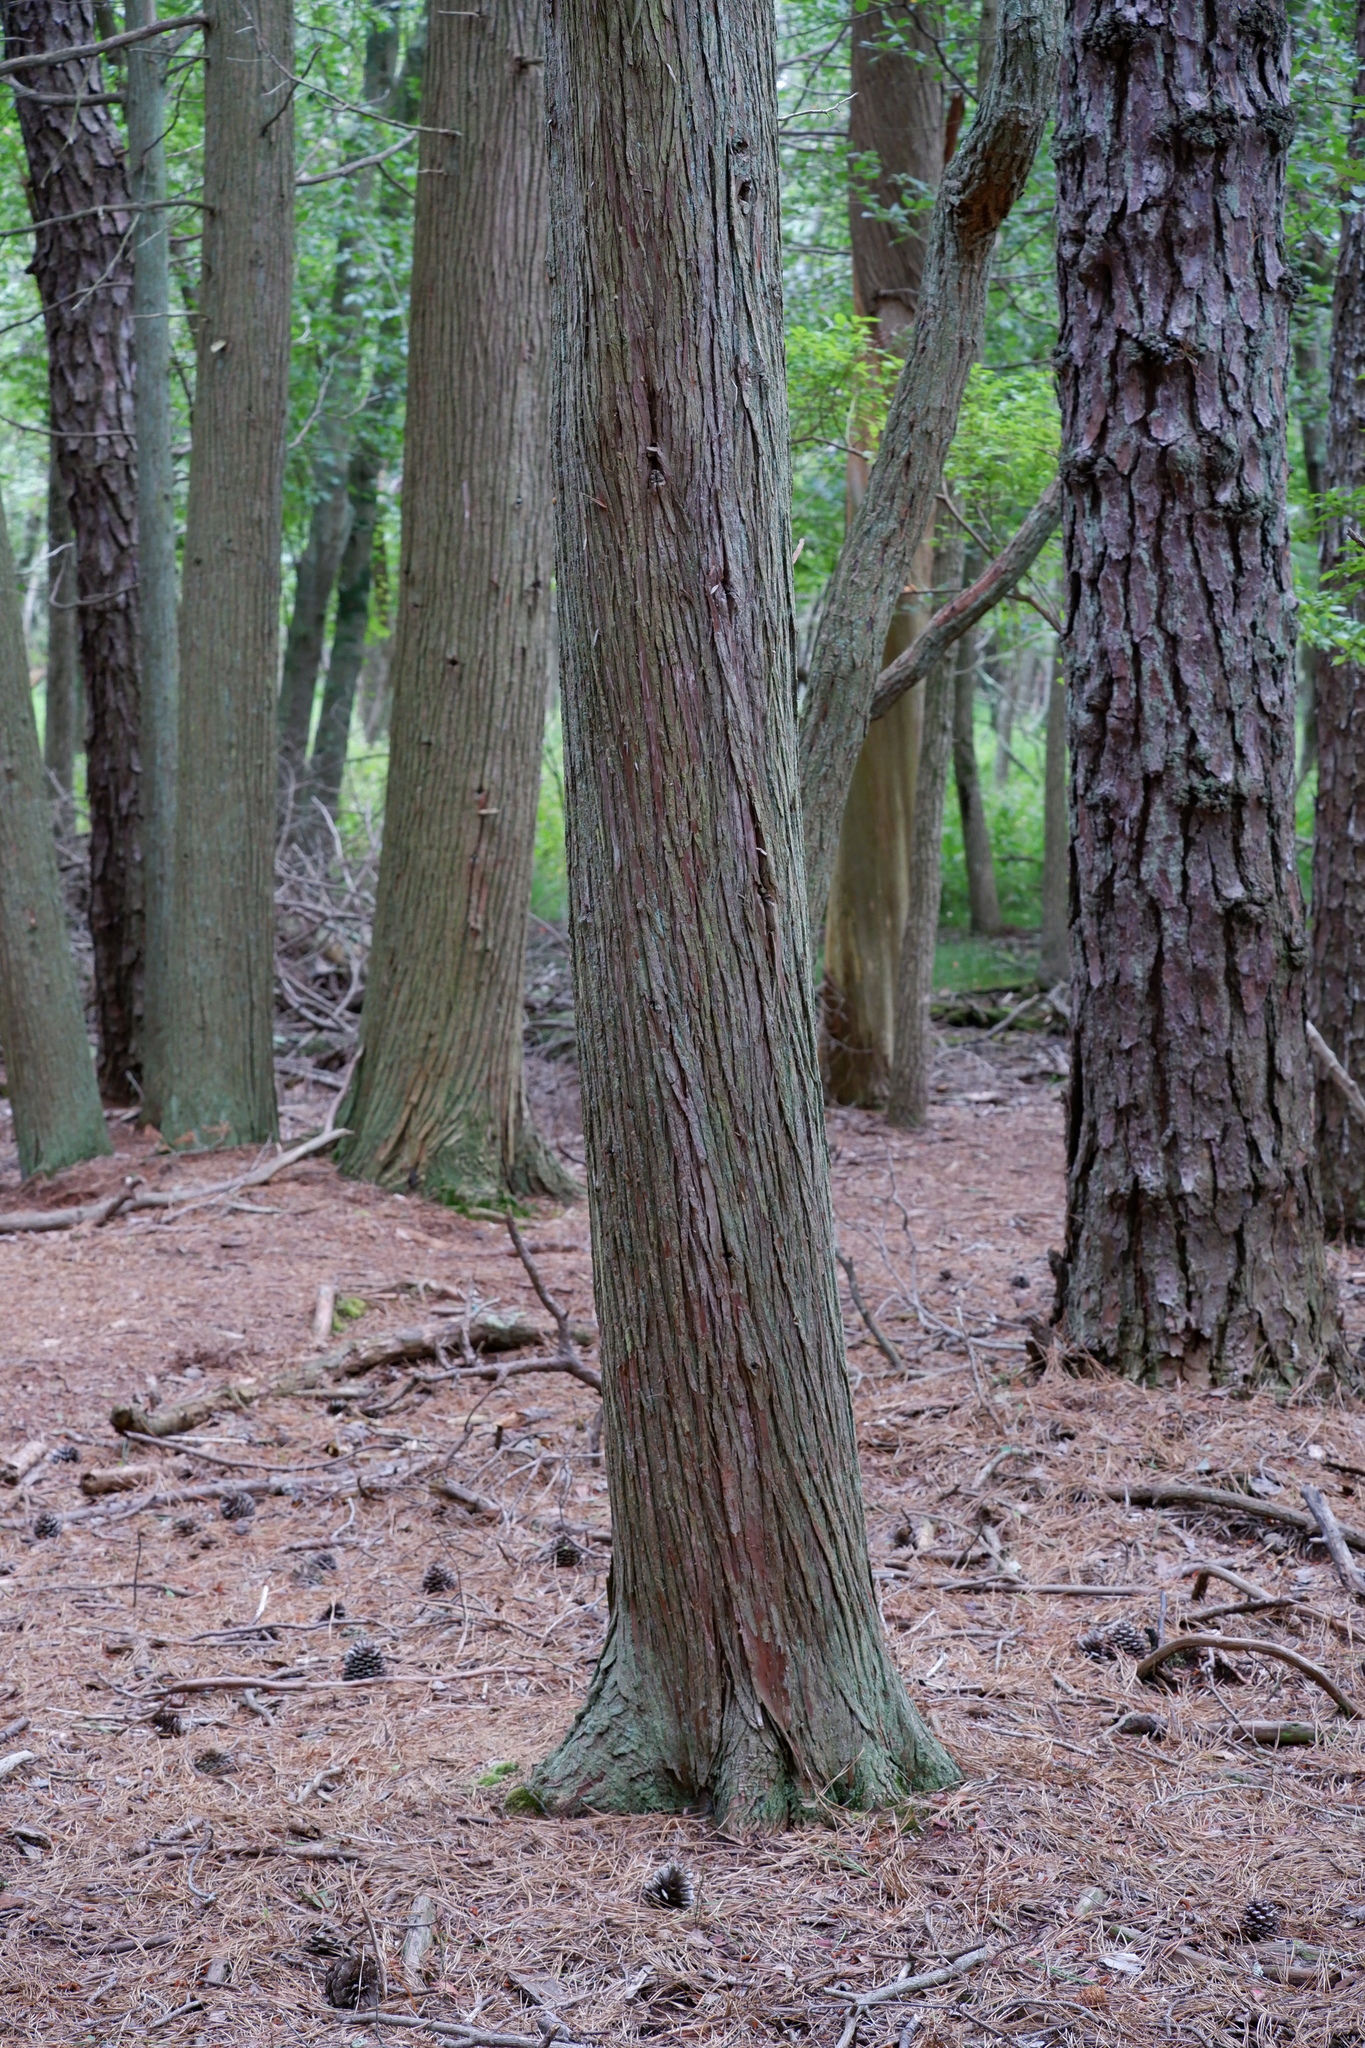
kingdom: Plantae
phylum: Tracheophyta
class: Pinopsida
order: Pinales
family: Cupressaceae
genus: Chamaecyparis
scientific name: Chamaecyparis thyoides
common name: Atlantic white cedar
